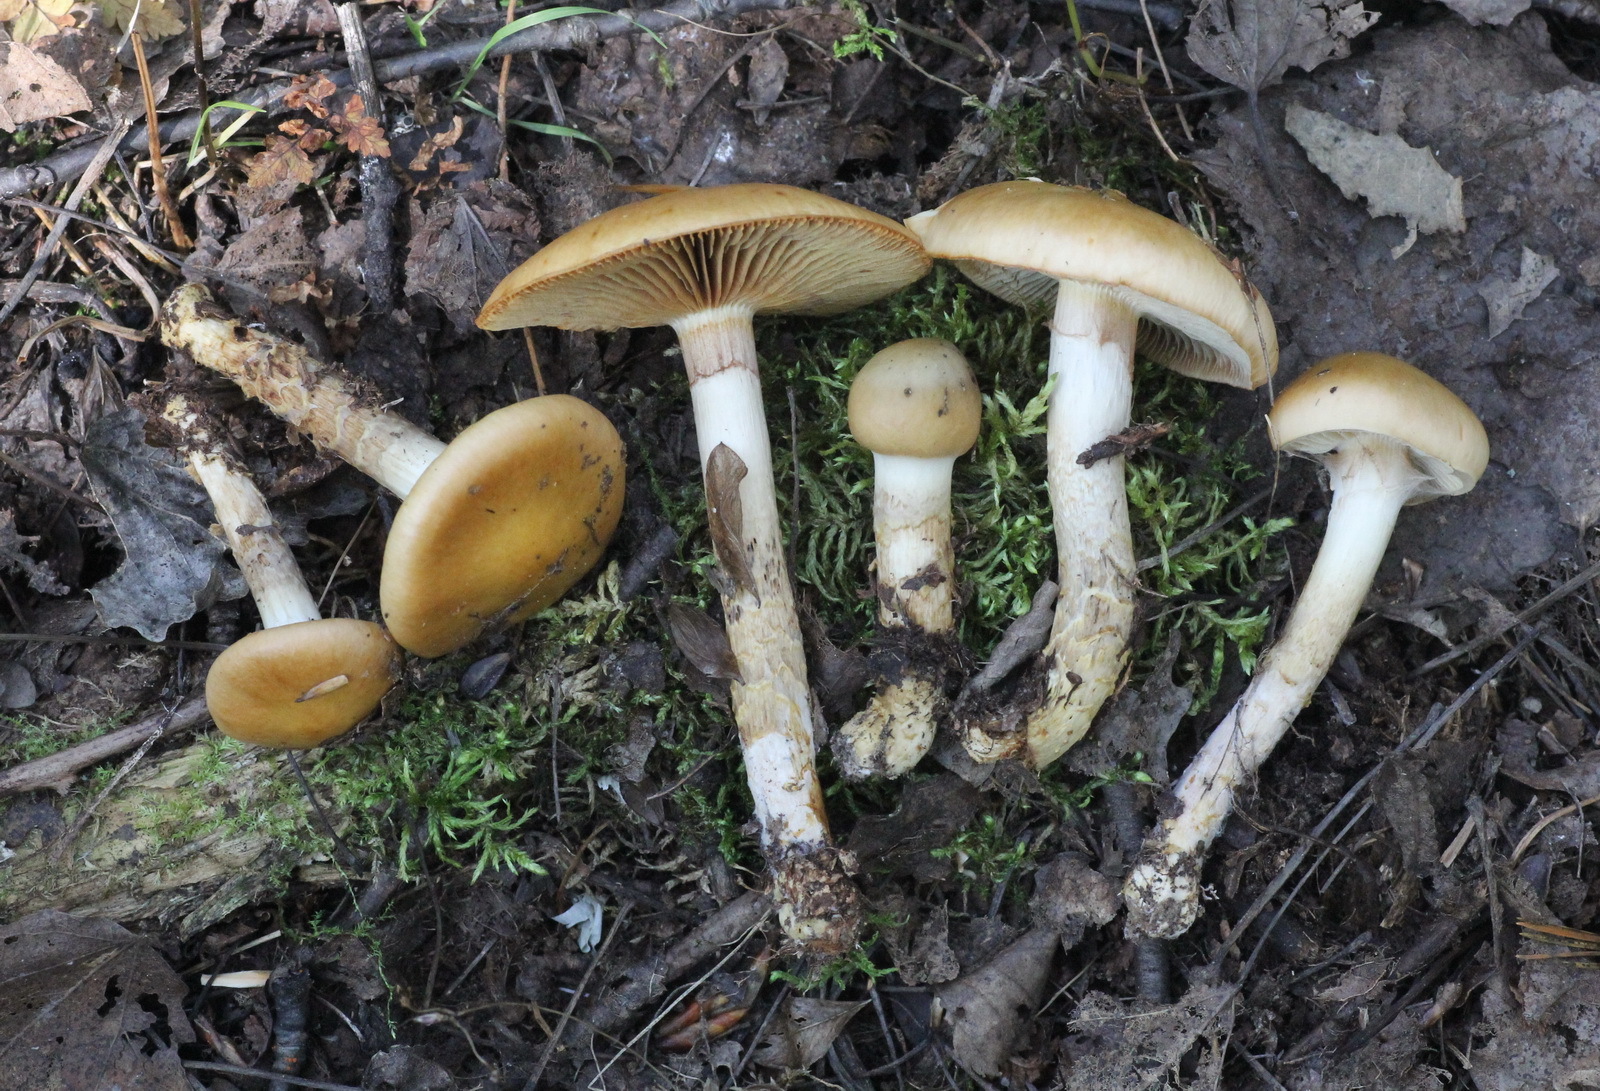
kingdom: Fungi
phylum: Basidiomycota
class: Agaricomycetes
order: Agaricales
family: Cortinariaceae
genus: Cortinarius
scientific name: Cortinarius trivialis
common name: Girdled webcap
